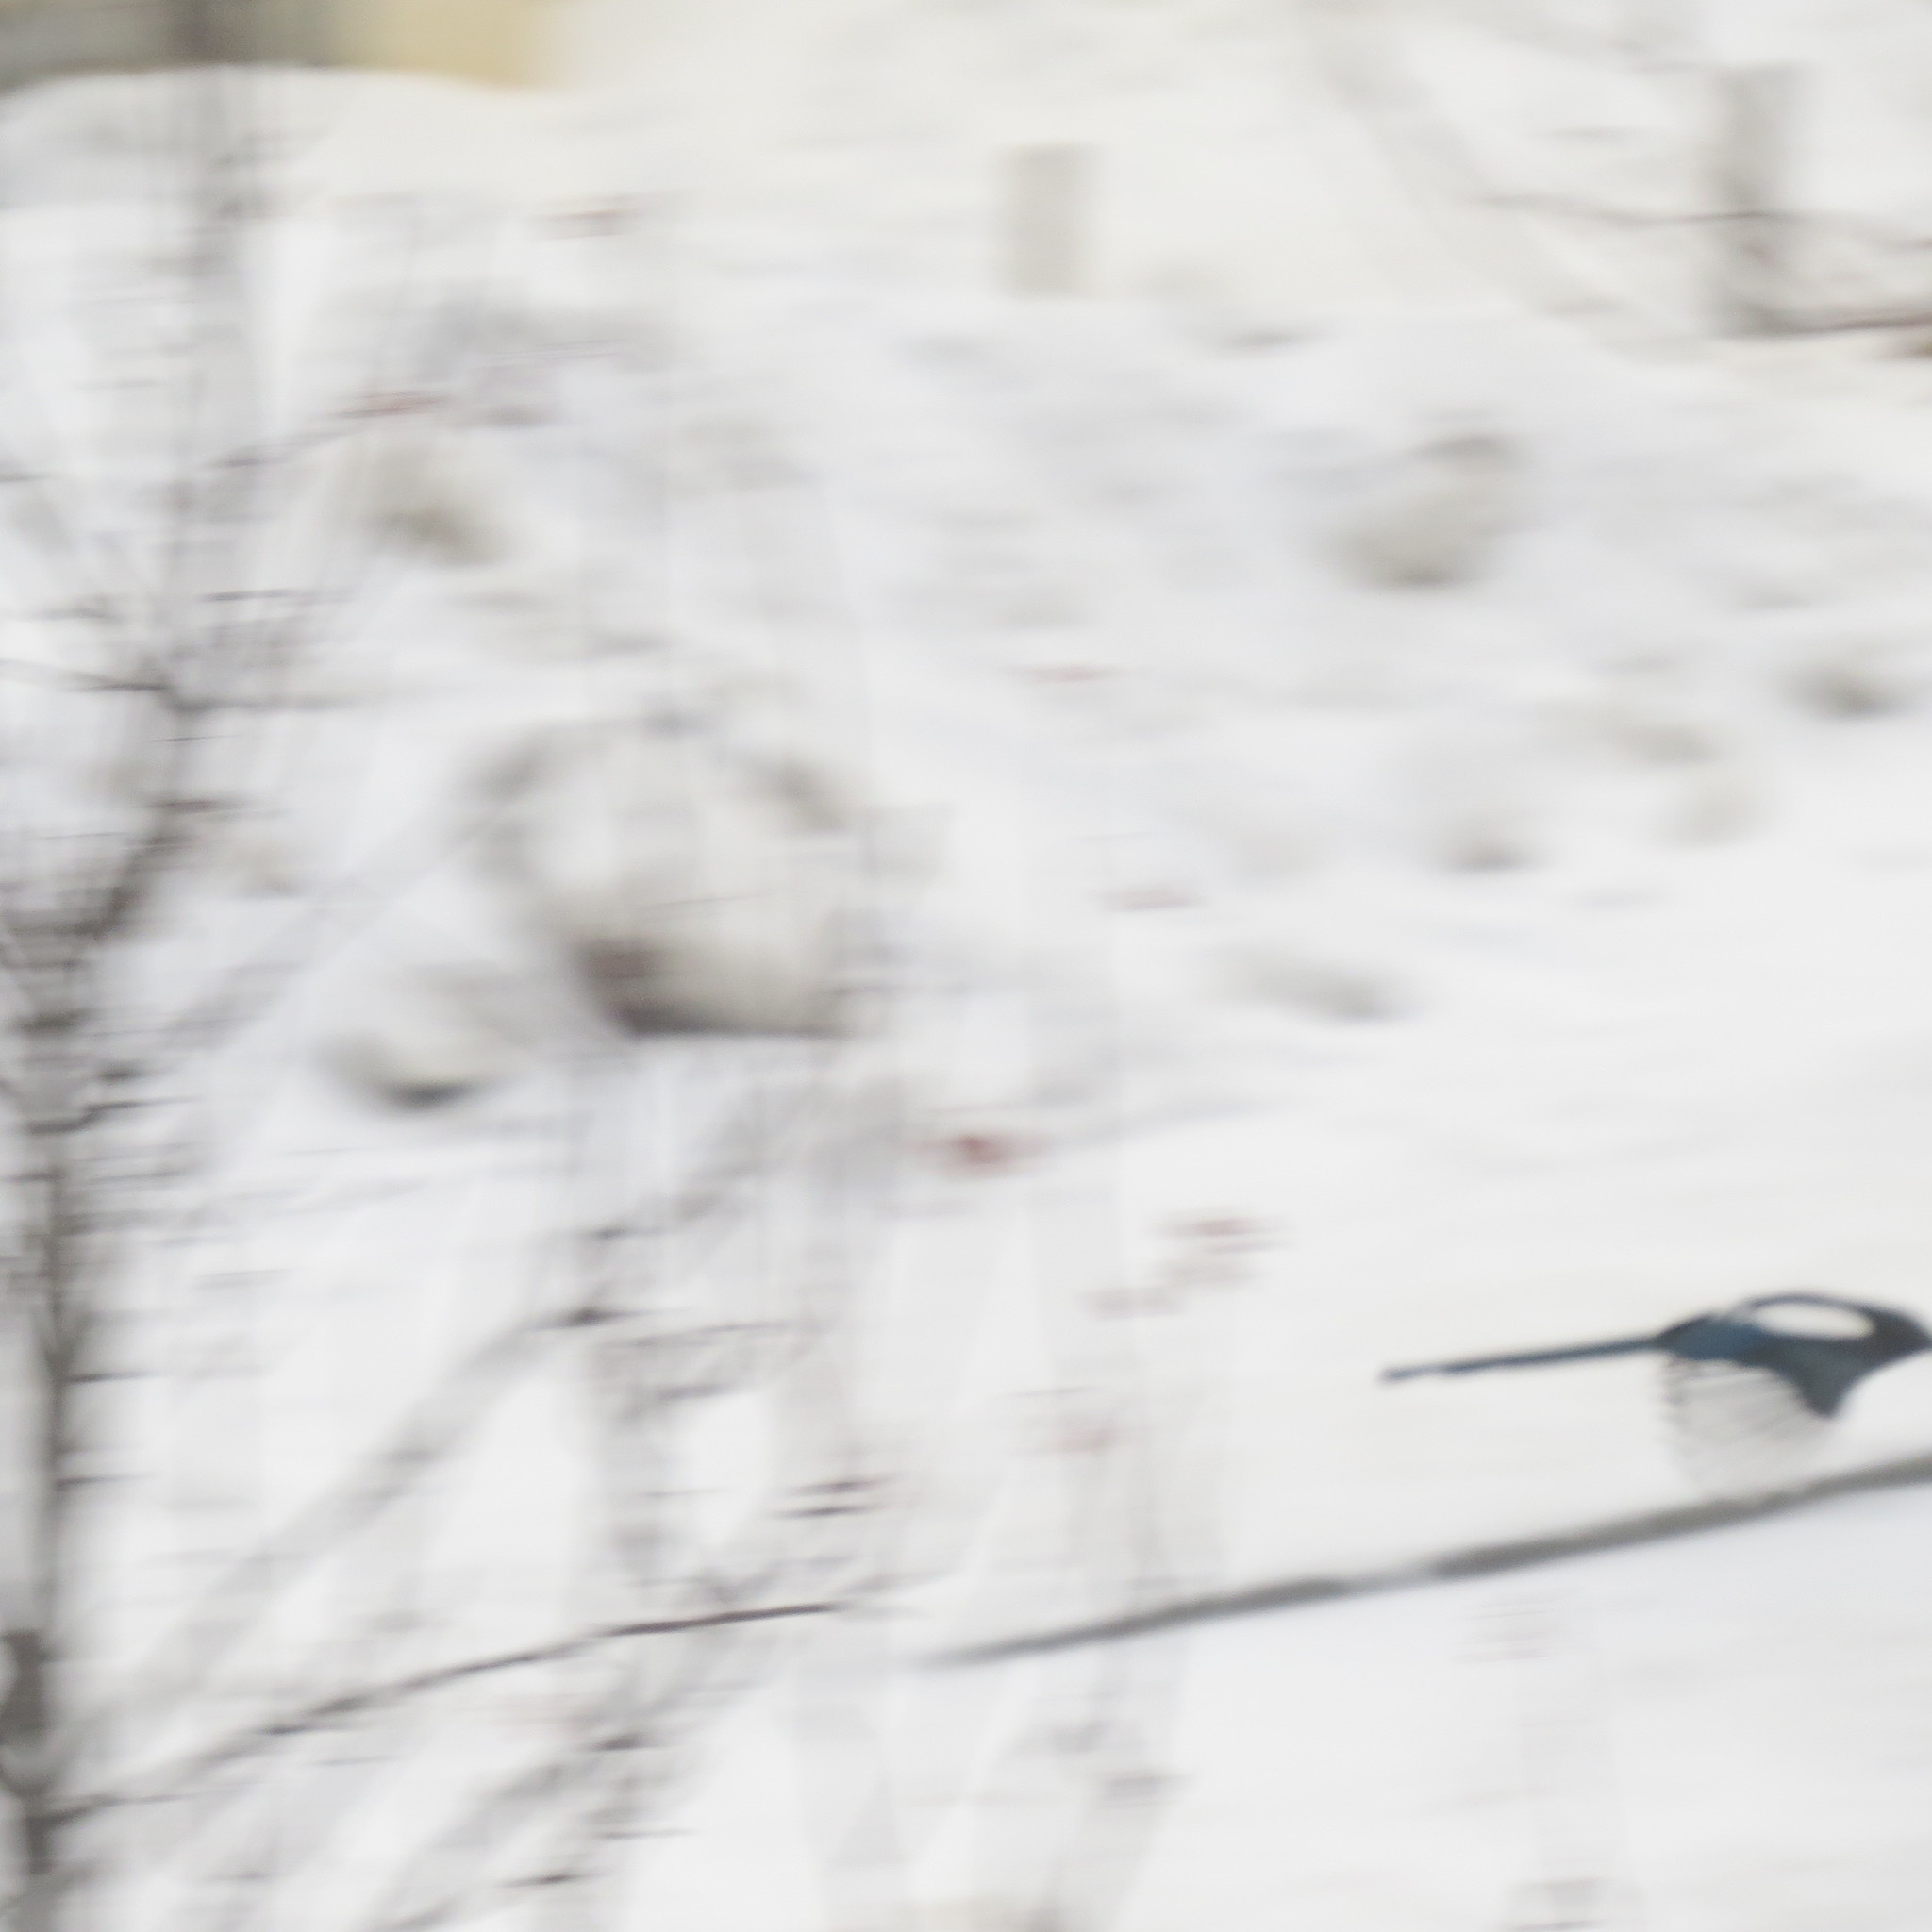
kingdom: Animalia
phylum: Chordata
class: Aves
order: Passeriformes
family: Corvidae
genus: Pica
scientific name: Pica pica
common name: Eurasian magpie
